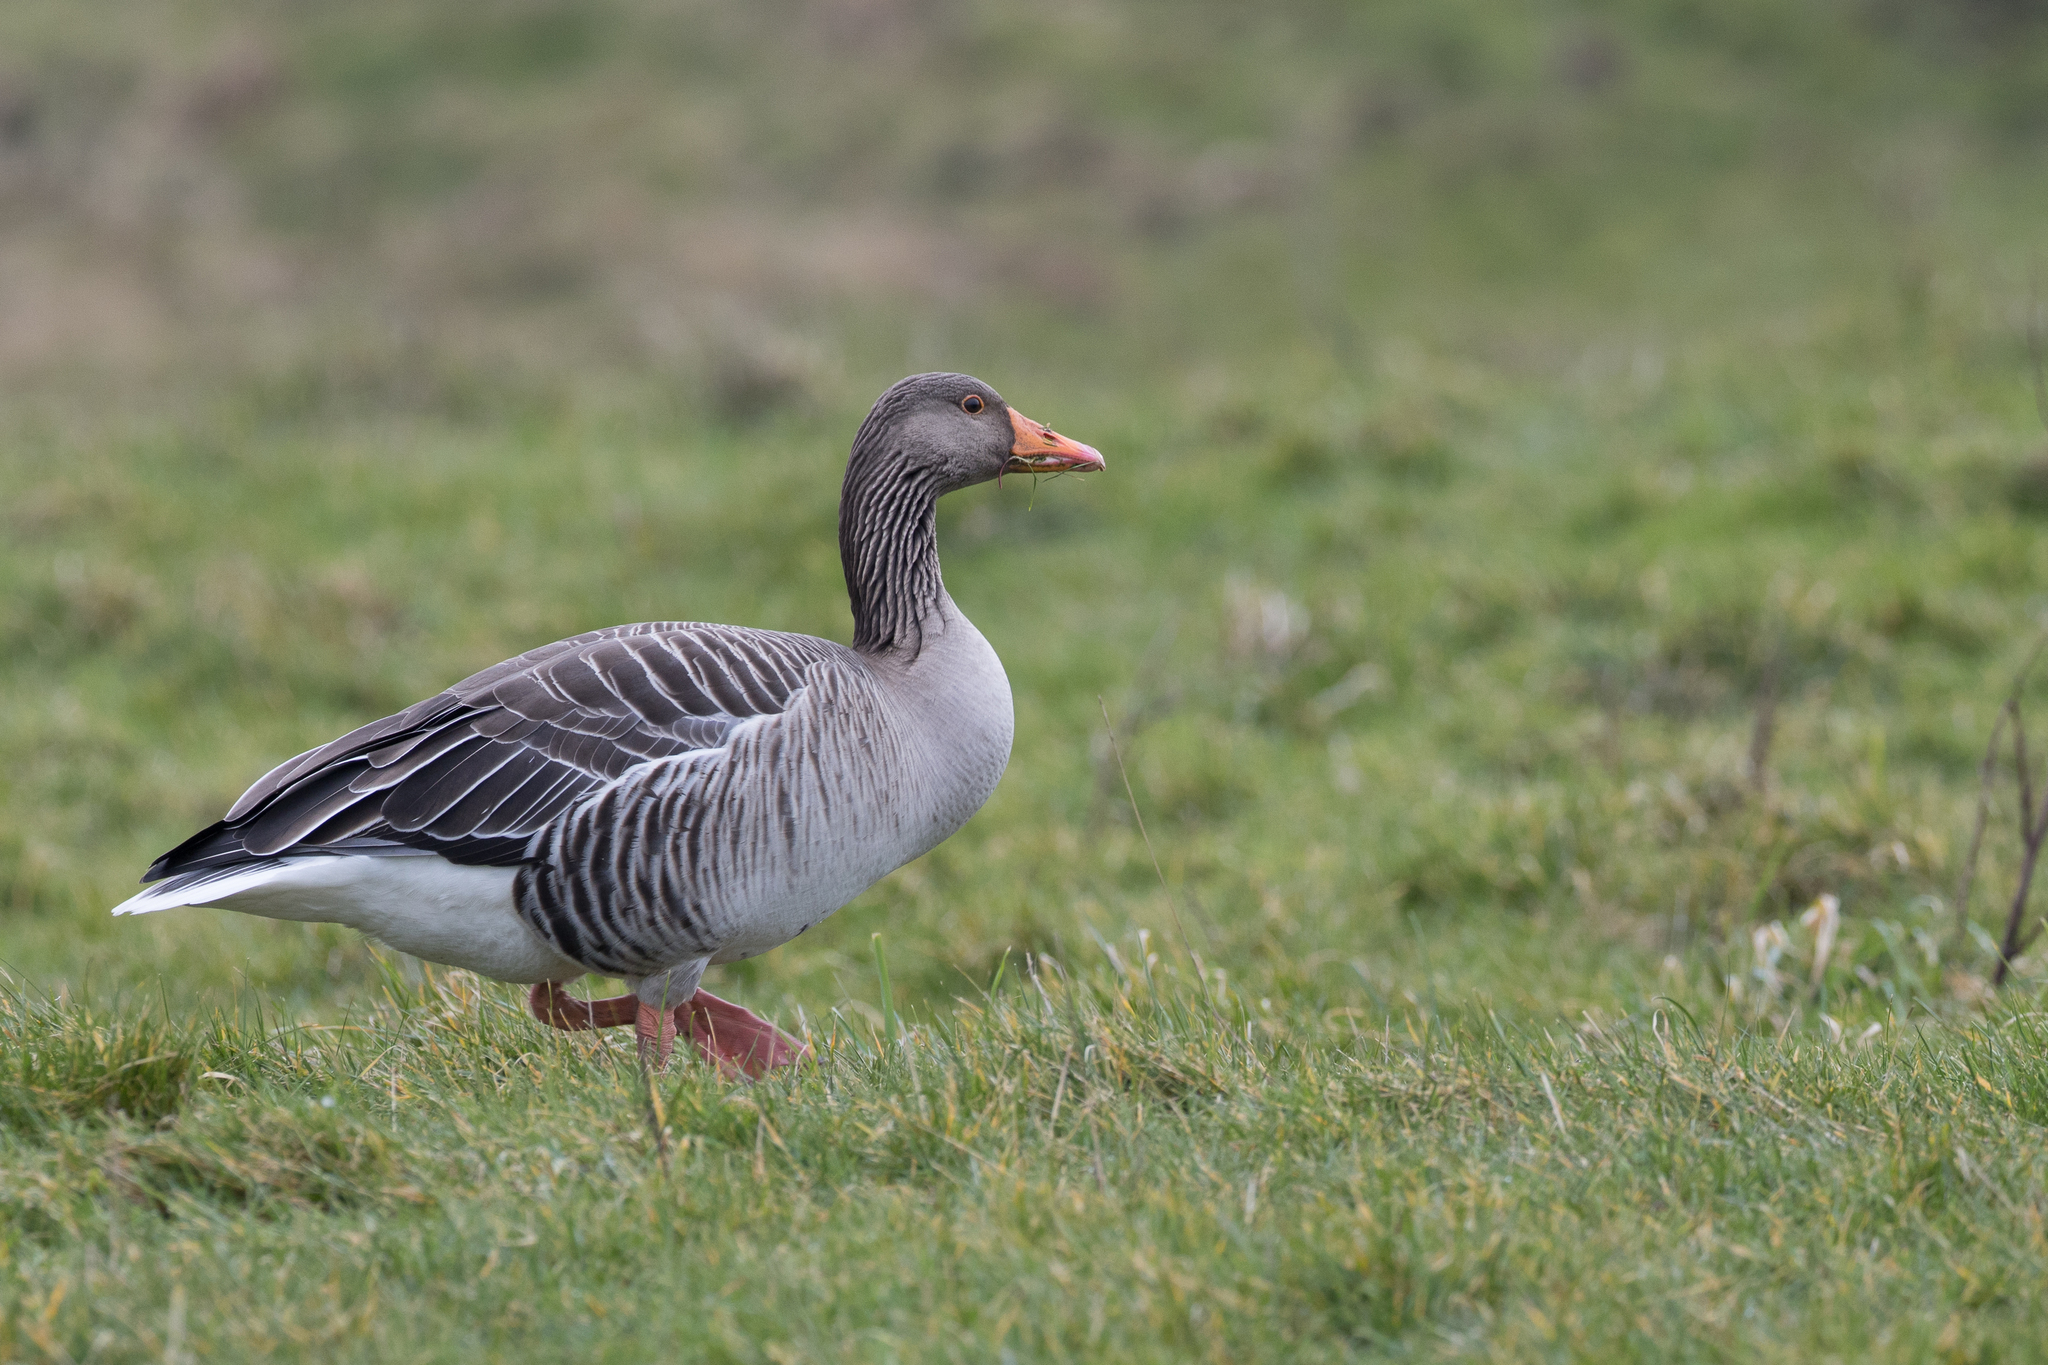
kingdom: Animalia
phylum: Chordata
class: Aves
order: Anseriformes
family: Anatidae
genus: Anser
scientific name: Anser anser
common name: Greylag goose
